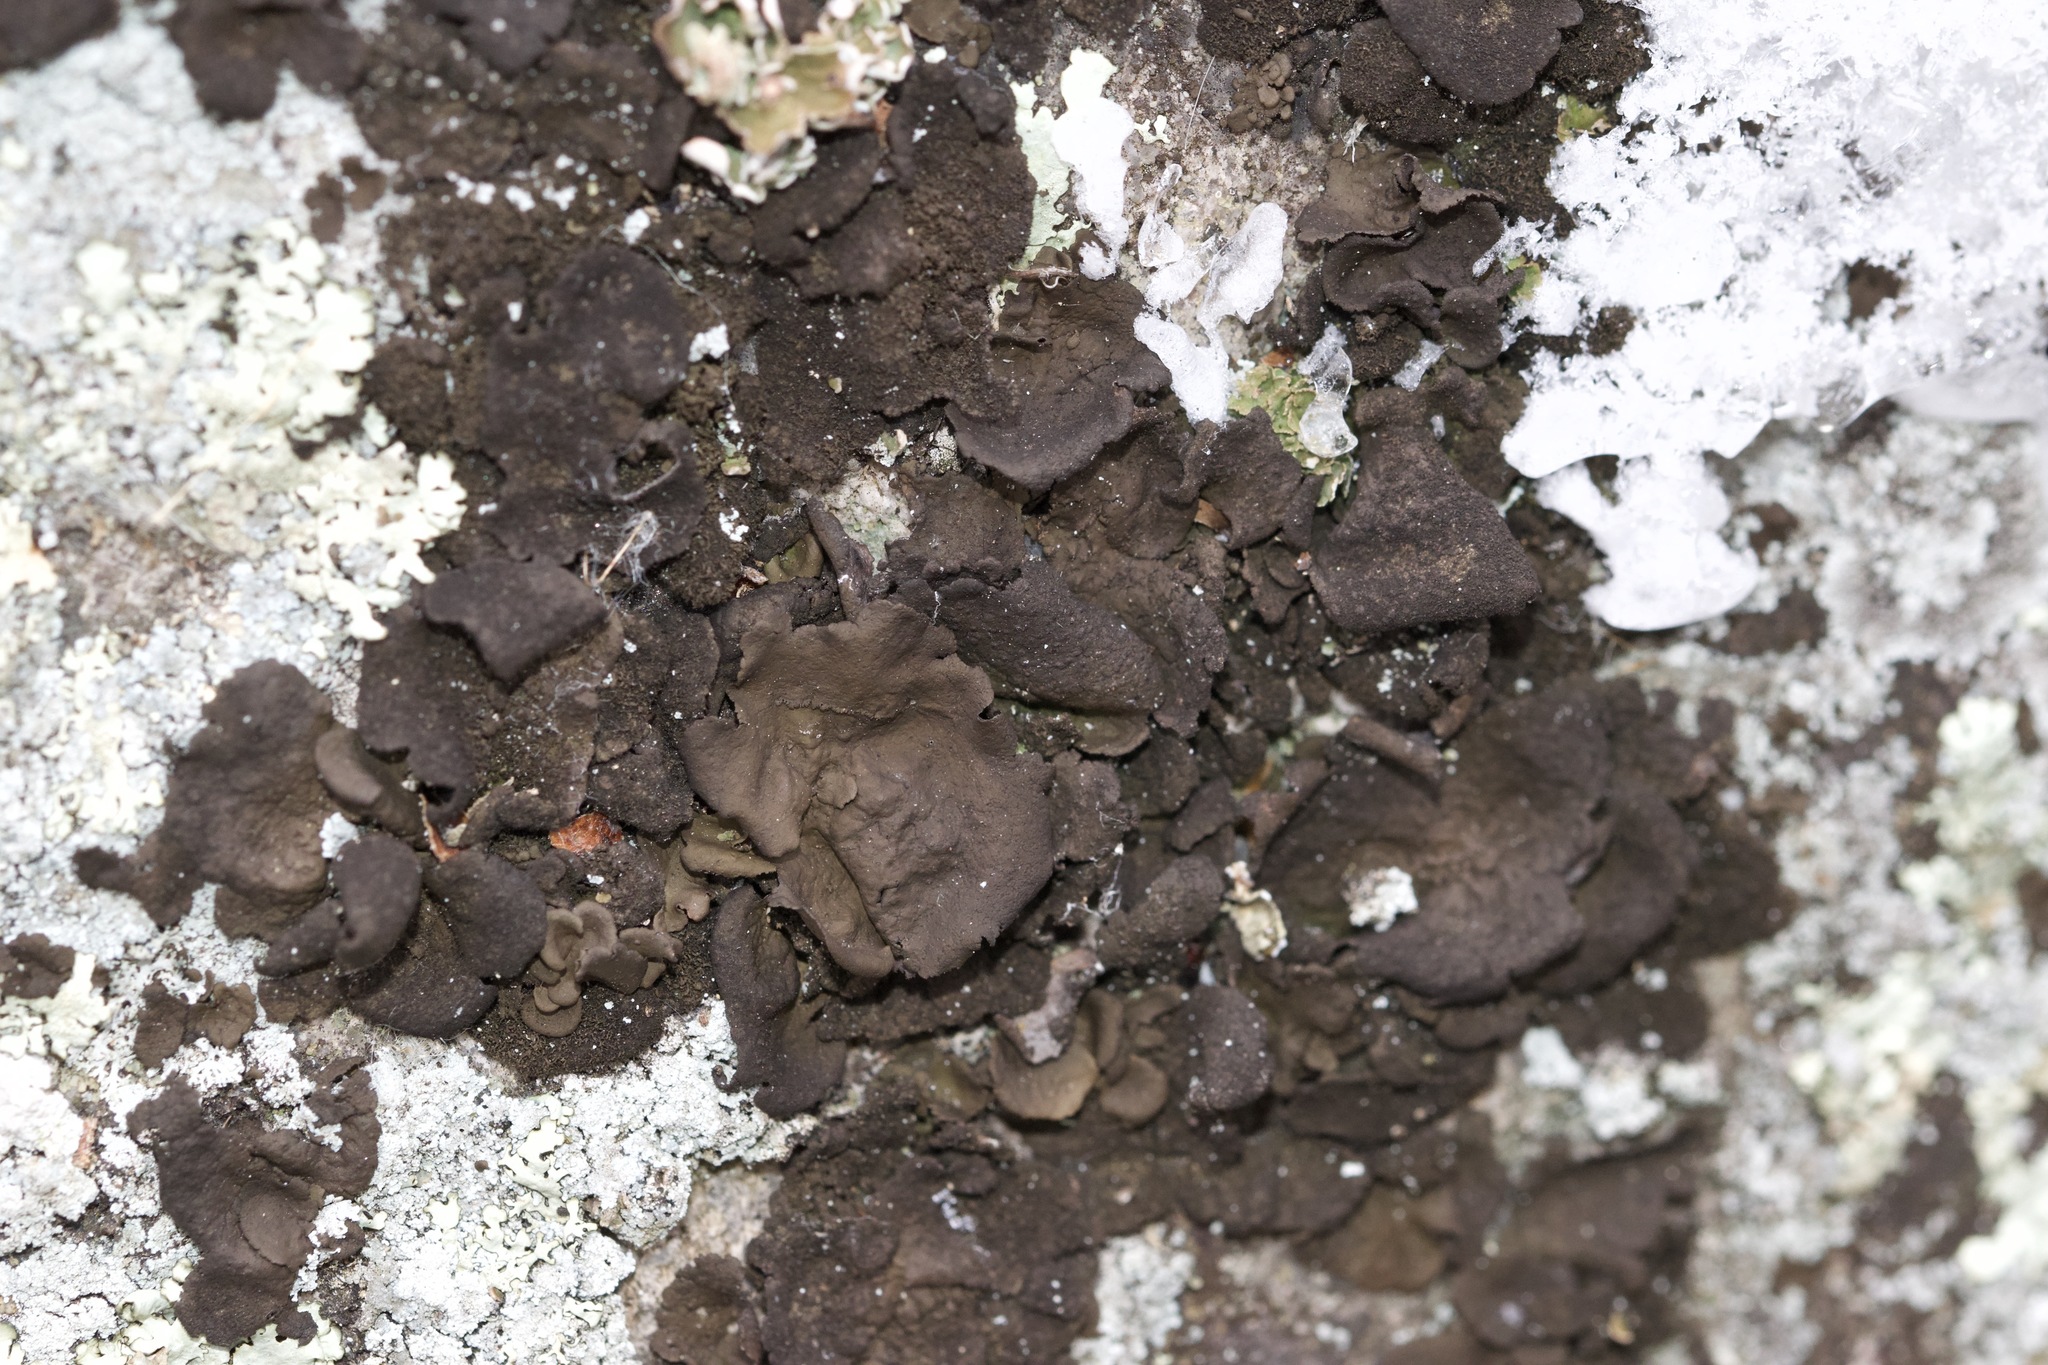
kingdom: Fungi
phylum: Ascomycota
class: Lecanoromycetes
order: Umbilicariales
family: Umbilicariaceae
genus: Umbilicaria
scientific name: Umbilicaria deusta
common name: Peppered rock tripe
